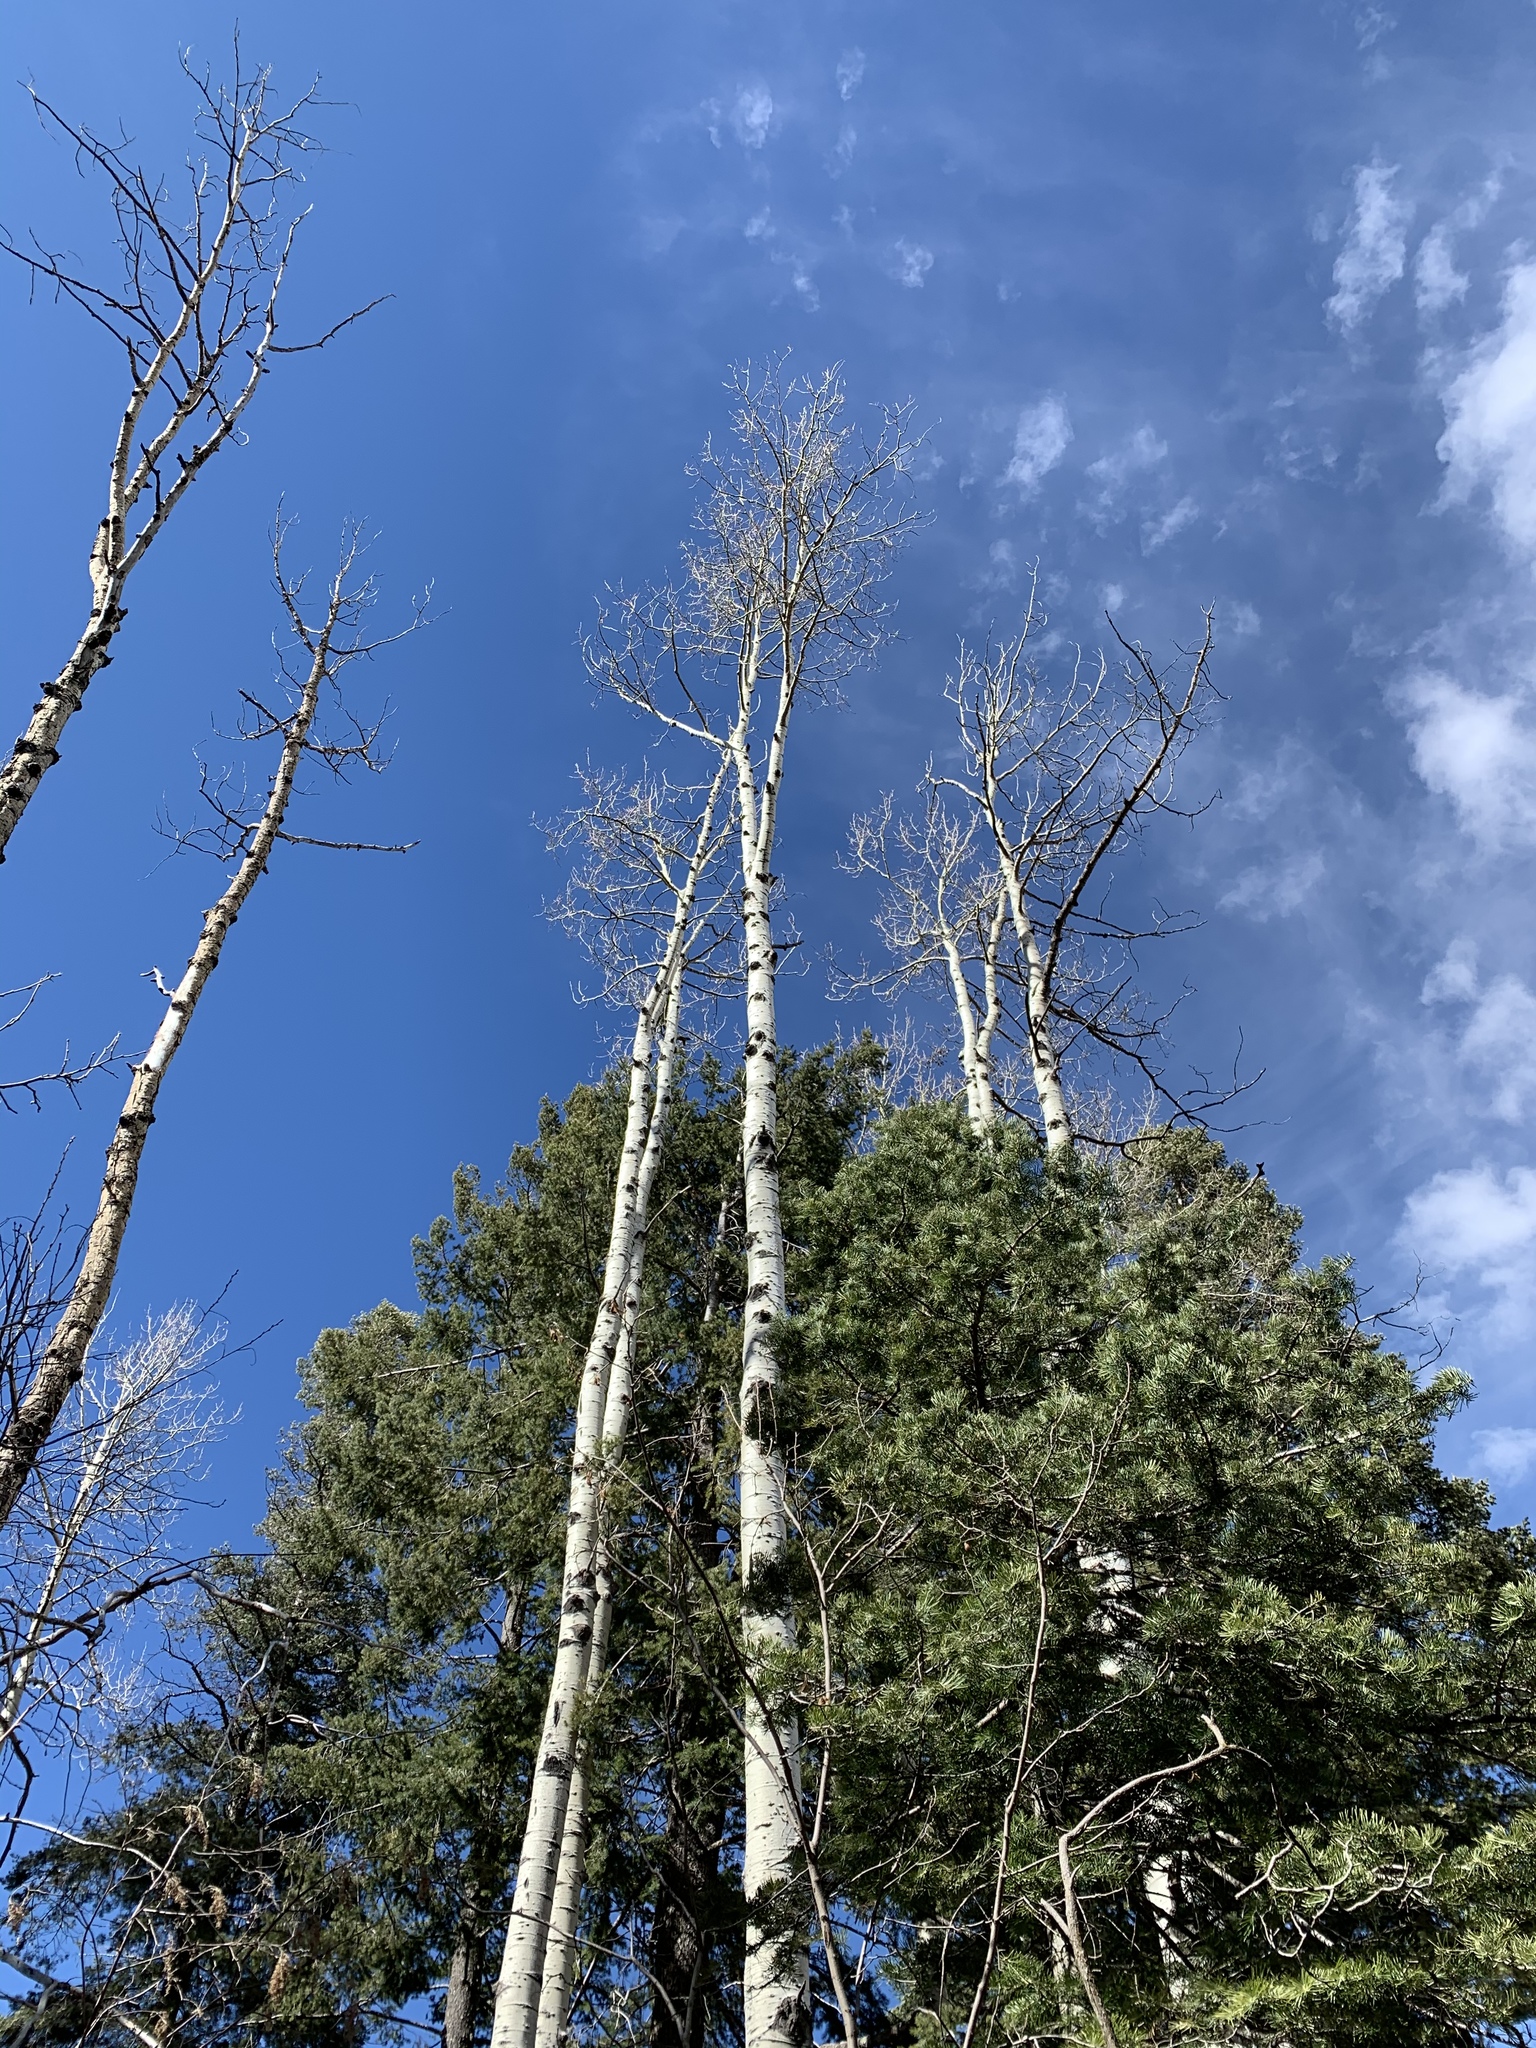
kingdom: Plantae
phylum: Tracheophyta
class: Magnoliopsida
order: Malpighiales
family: Salicaceae
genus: Populus
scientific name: Populus tremuloides
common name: Quaking aspen
